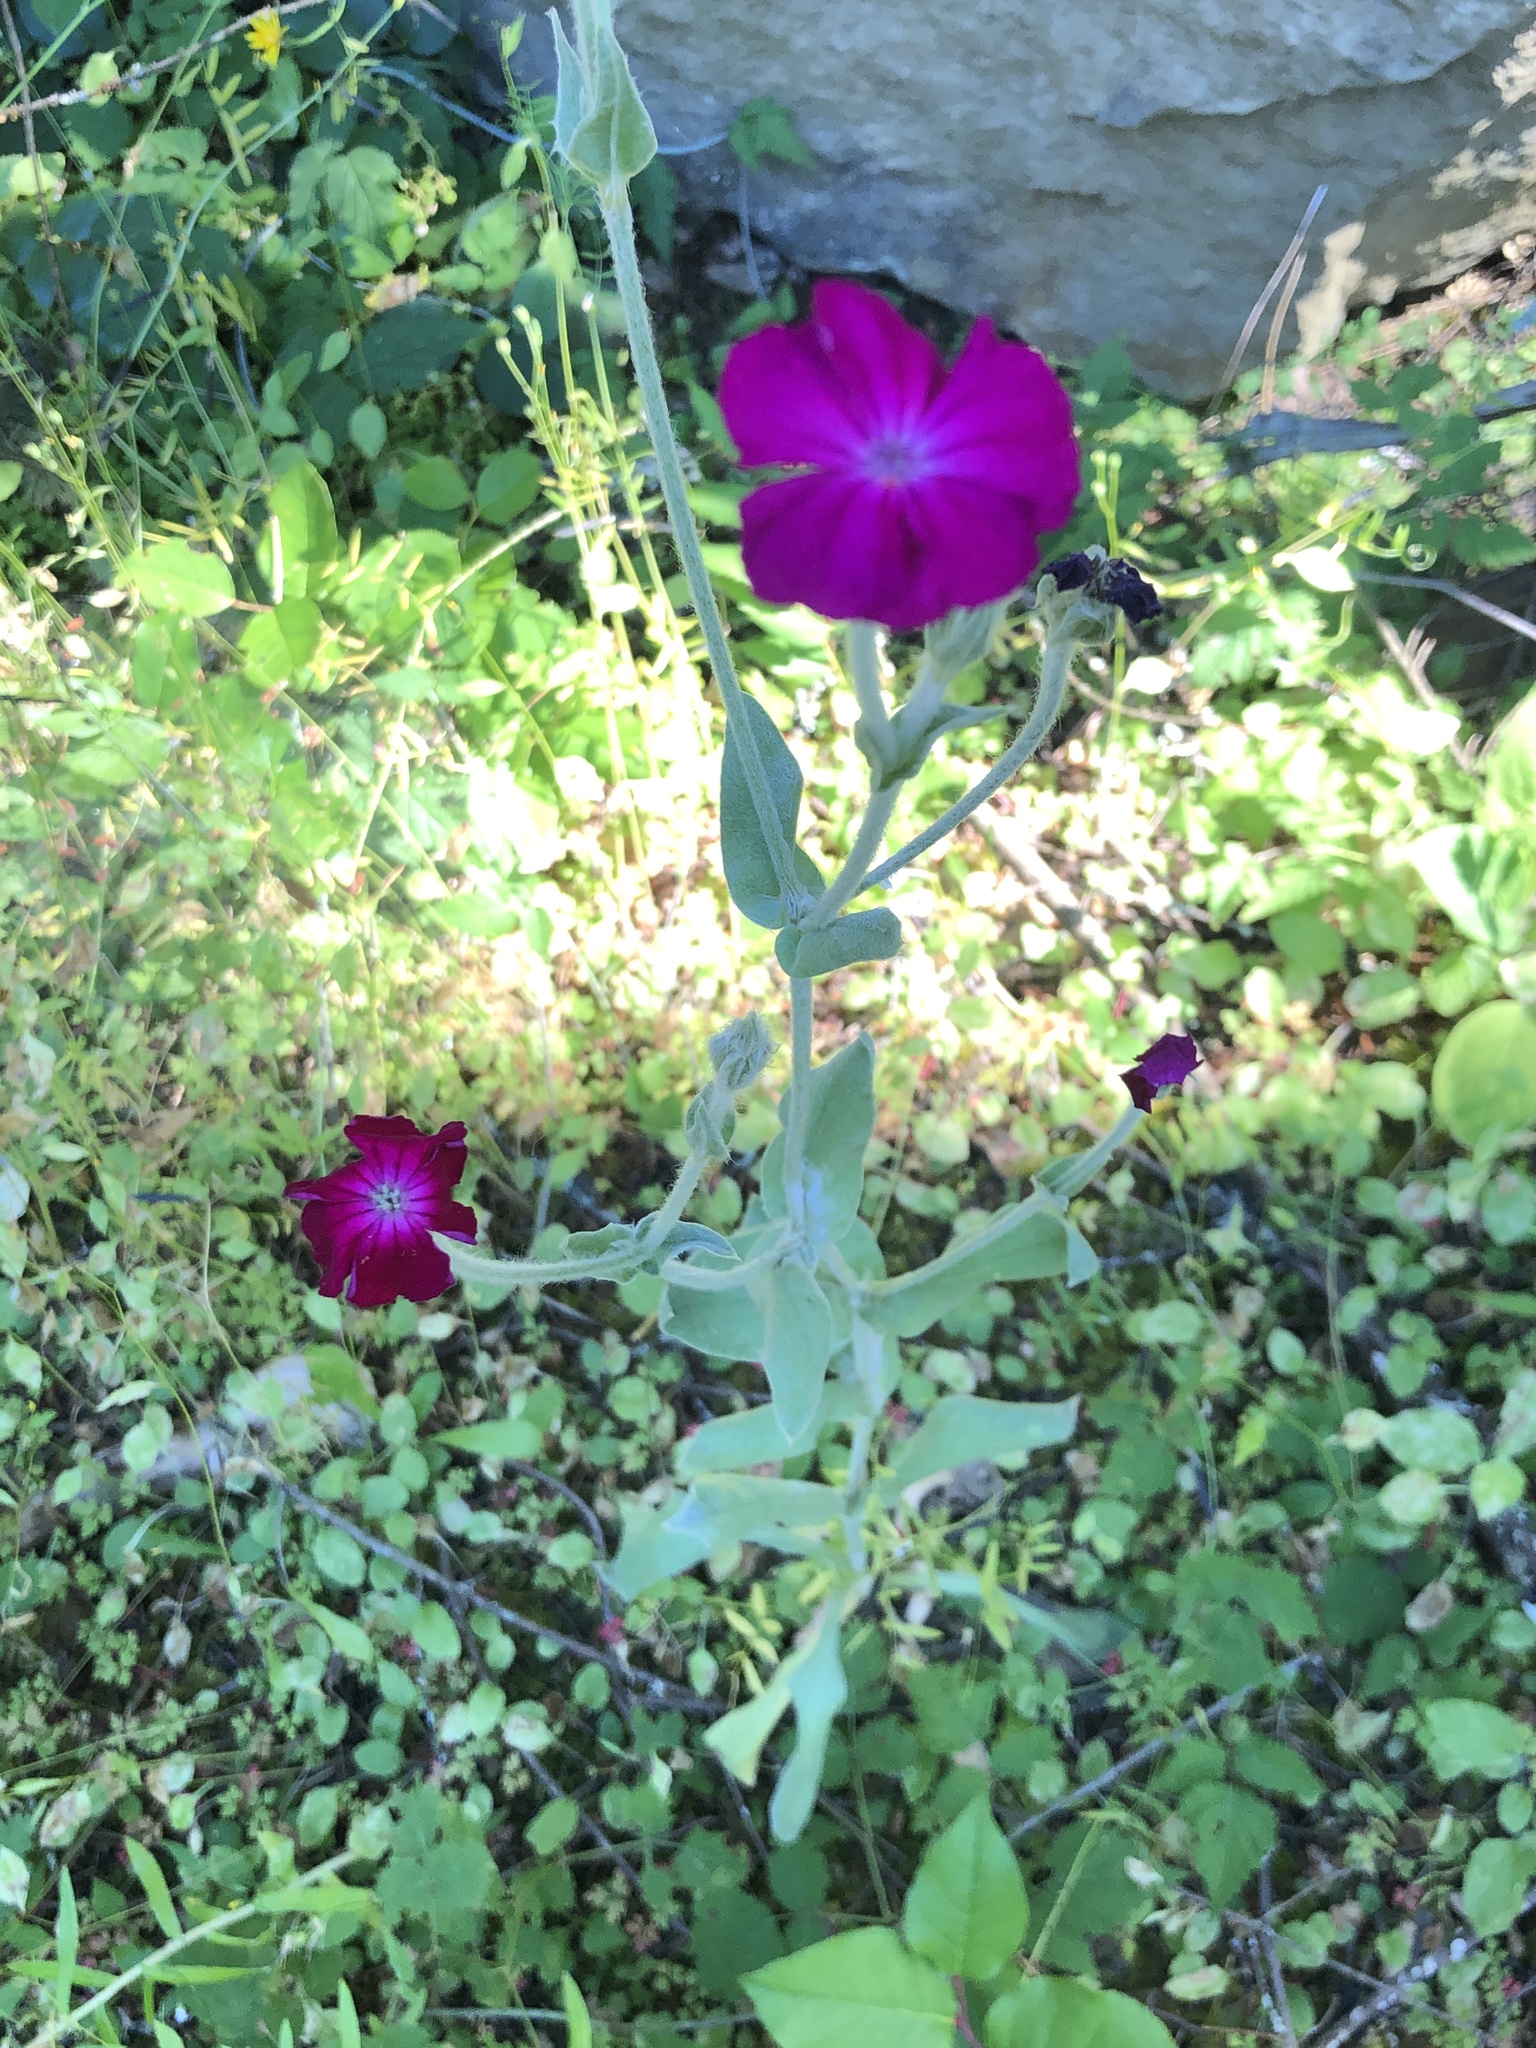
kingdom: Plantae
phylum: Tracheophyta
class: Magnoliopsida
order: Caryophyllales
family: Caryophyllaceae
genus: Silene
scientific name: Silene coronaria
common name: Rose campion
